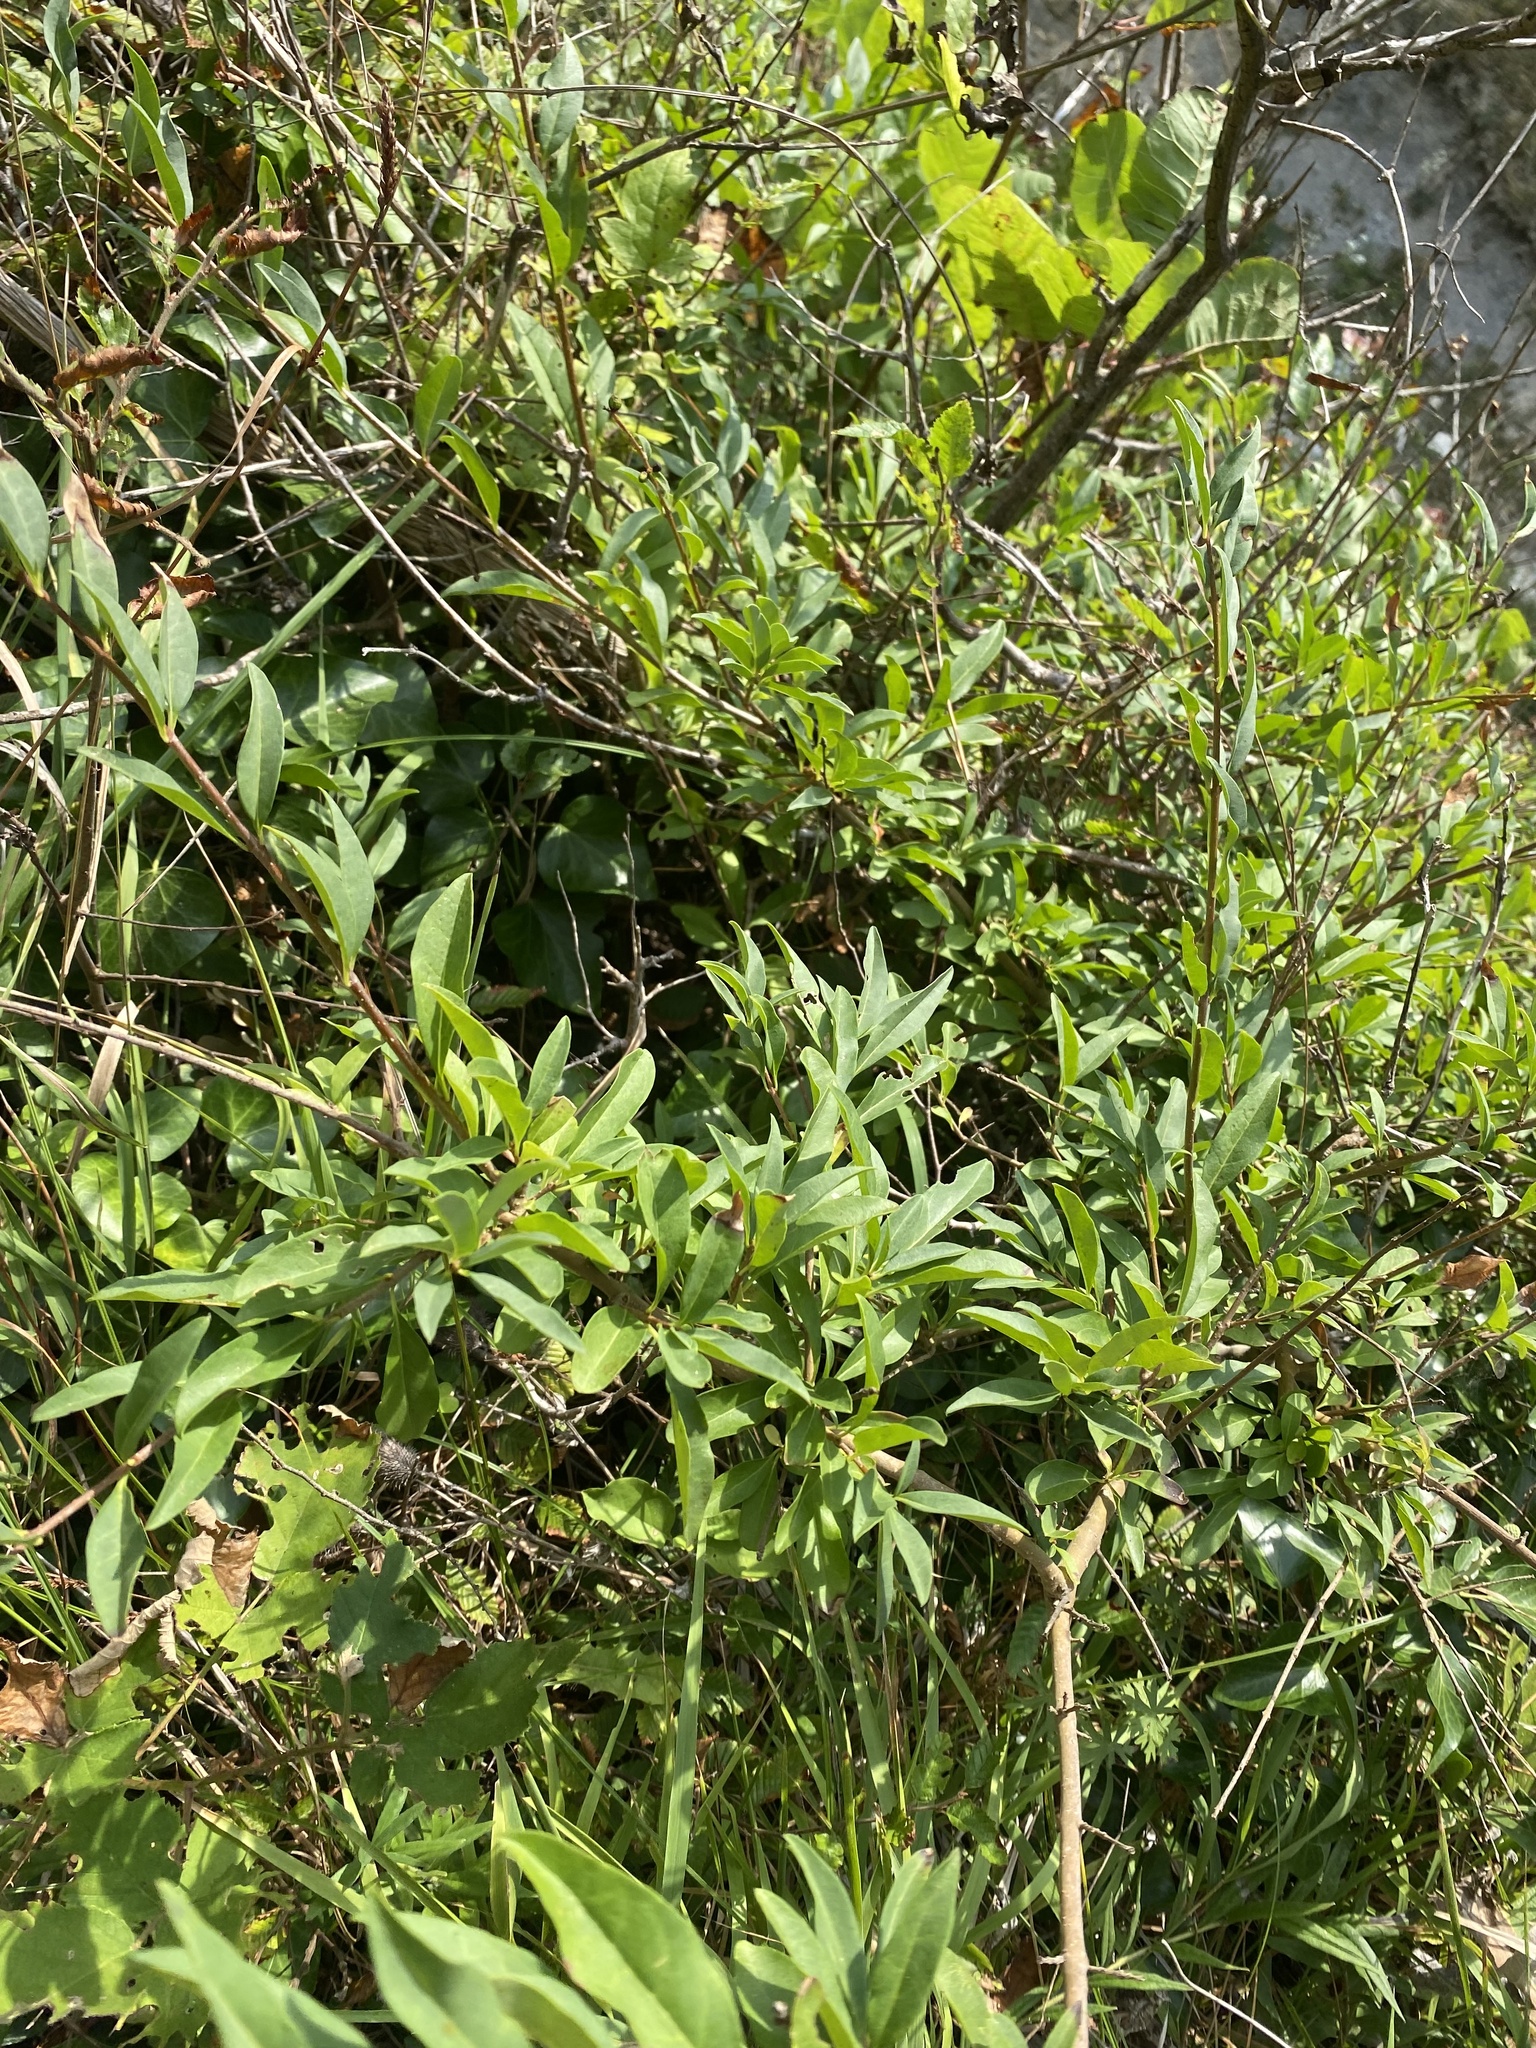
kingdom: Plantae
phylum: Tracheophyta
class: Magnoliopsida
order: Lamiales
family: Oleaceae
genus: Ligustrum
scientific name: Ligustrum vulgare
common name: Wild privet
